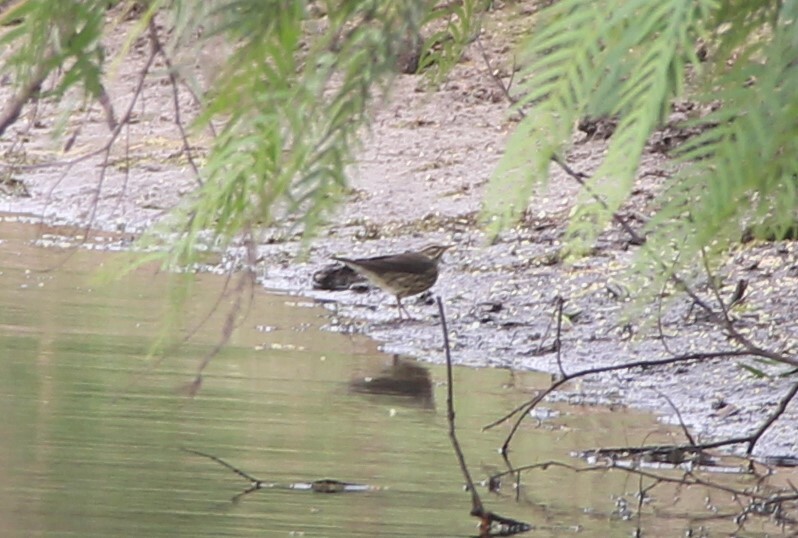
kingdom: Animalia
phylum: Chordata
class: Aves
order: Passeriformes
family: Parulidae
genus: Parkesia
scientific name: Parkesia noveboracensis
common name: Northern waterthrush
